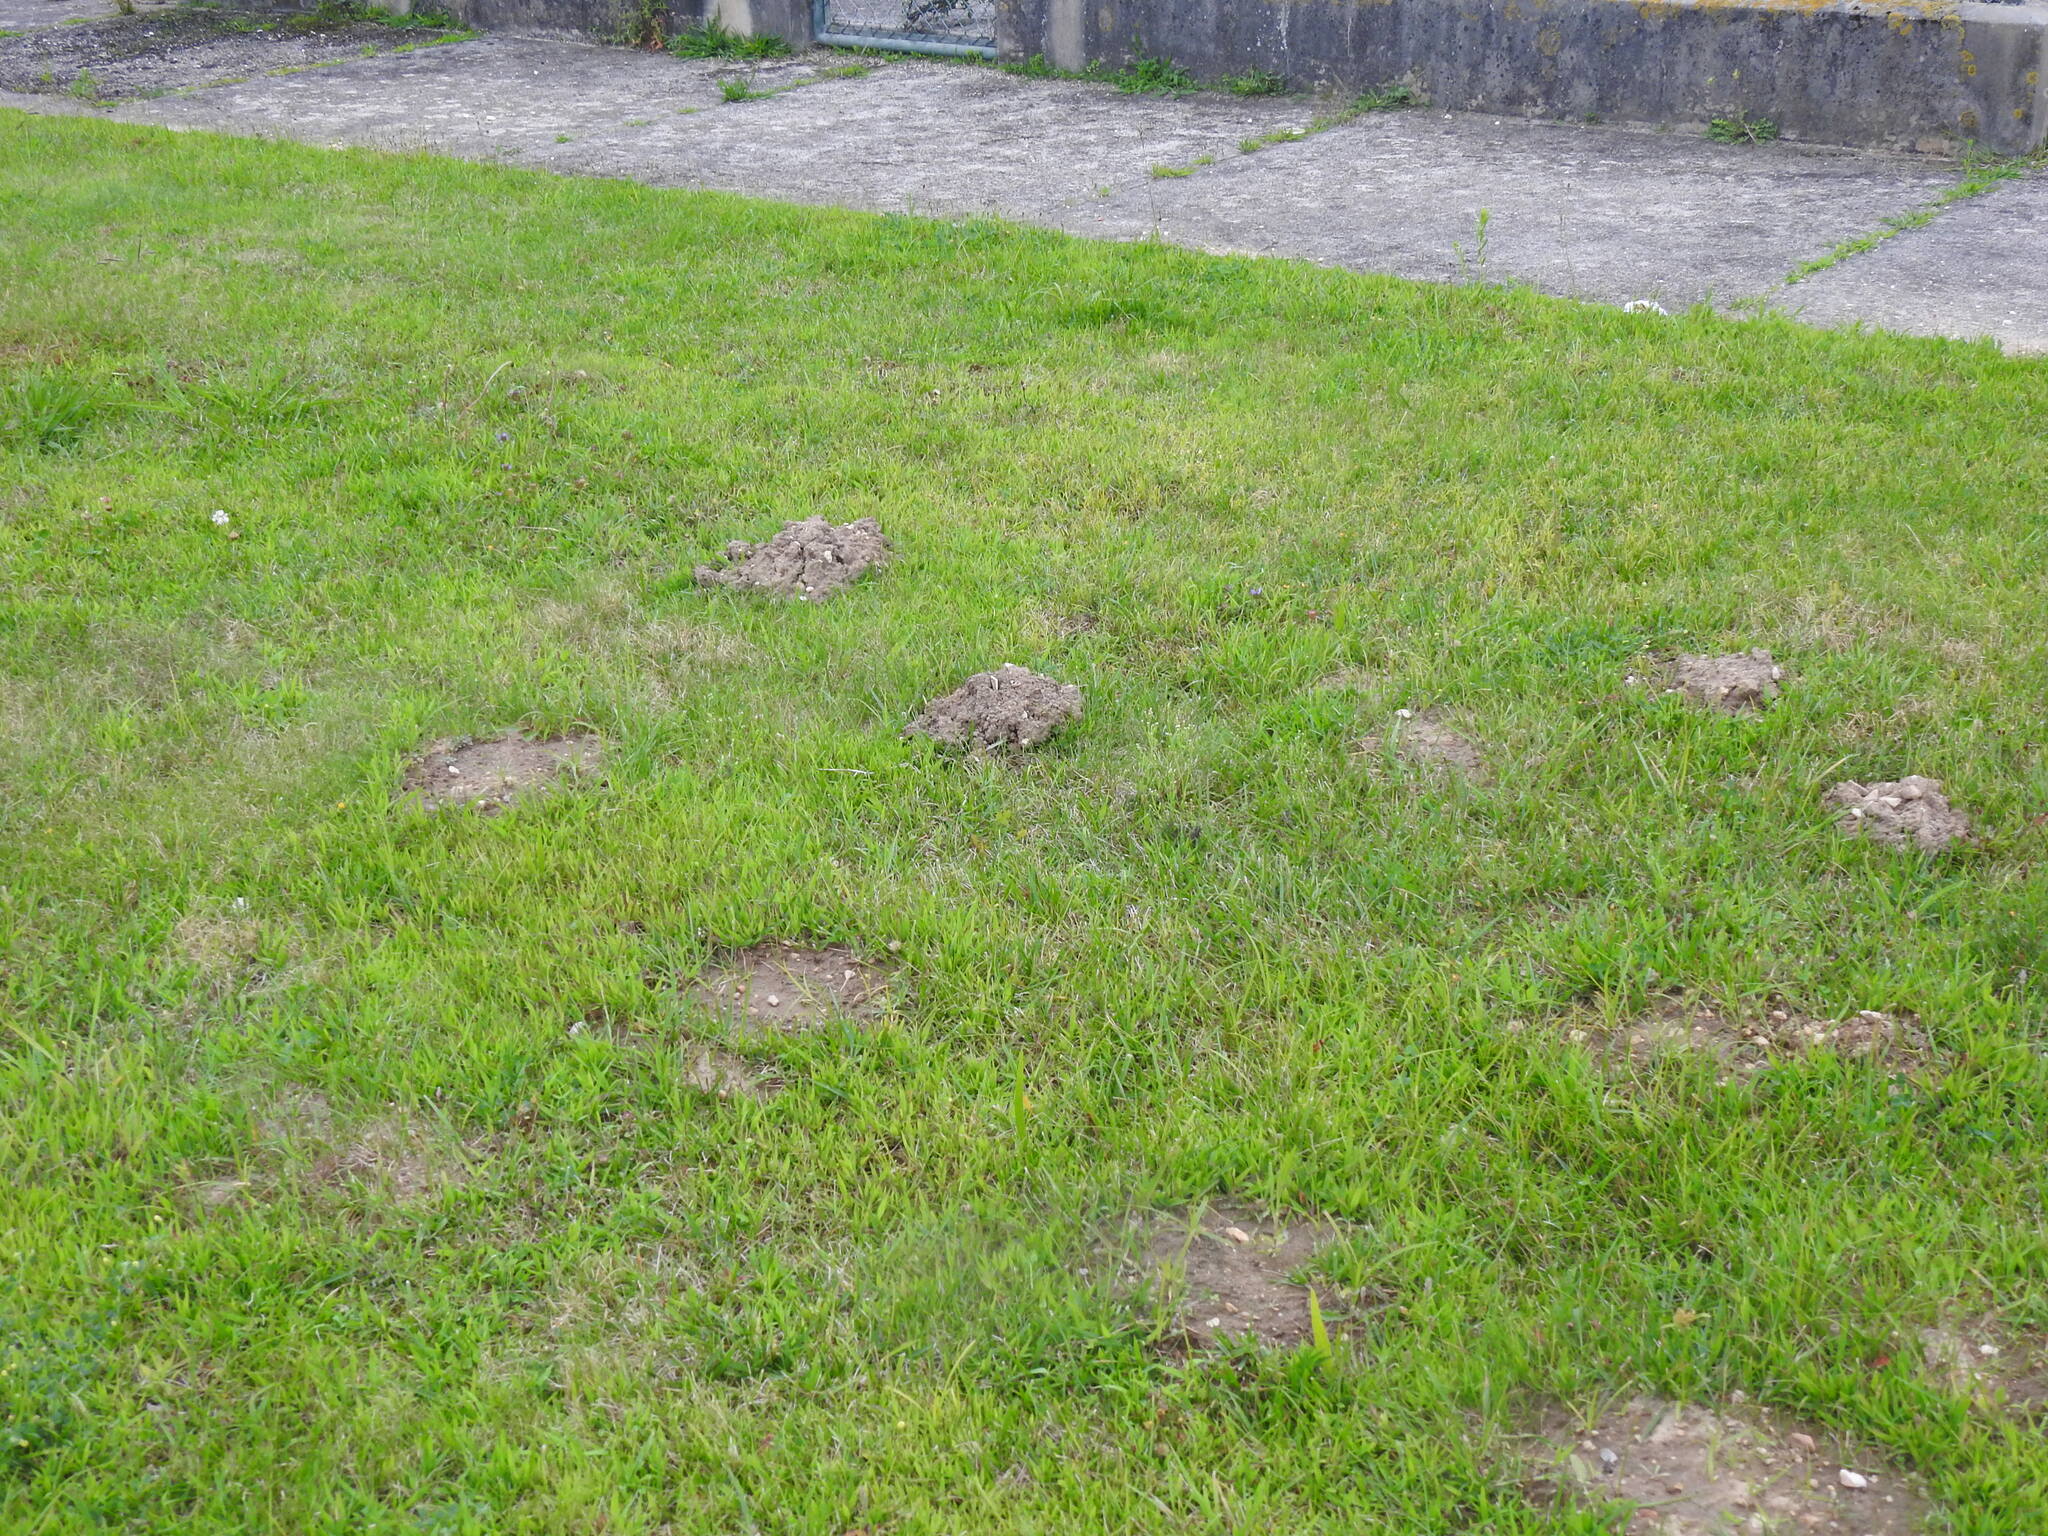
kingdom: Animalia
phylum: Chordata
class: Mammalia
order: Soricomorpha
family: Talpidae
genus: Talpa
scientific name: Talpa occidentalis
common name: Iberian mole
